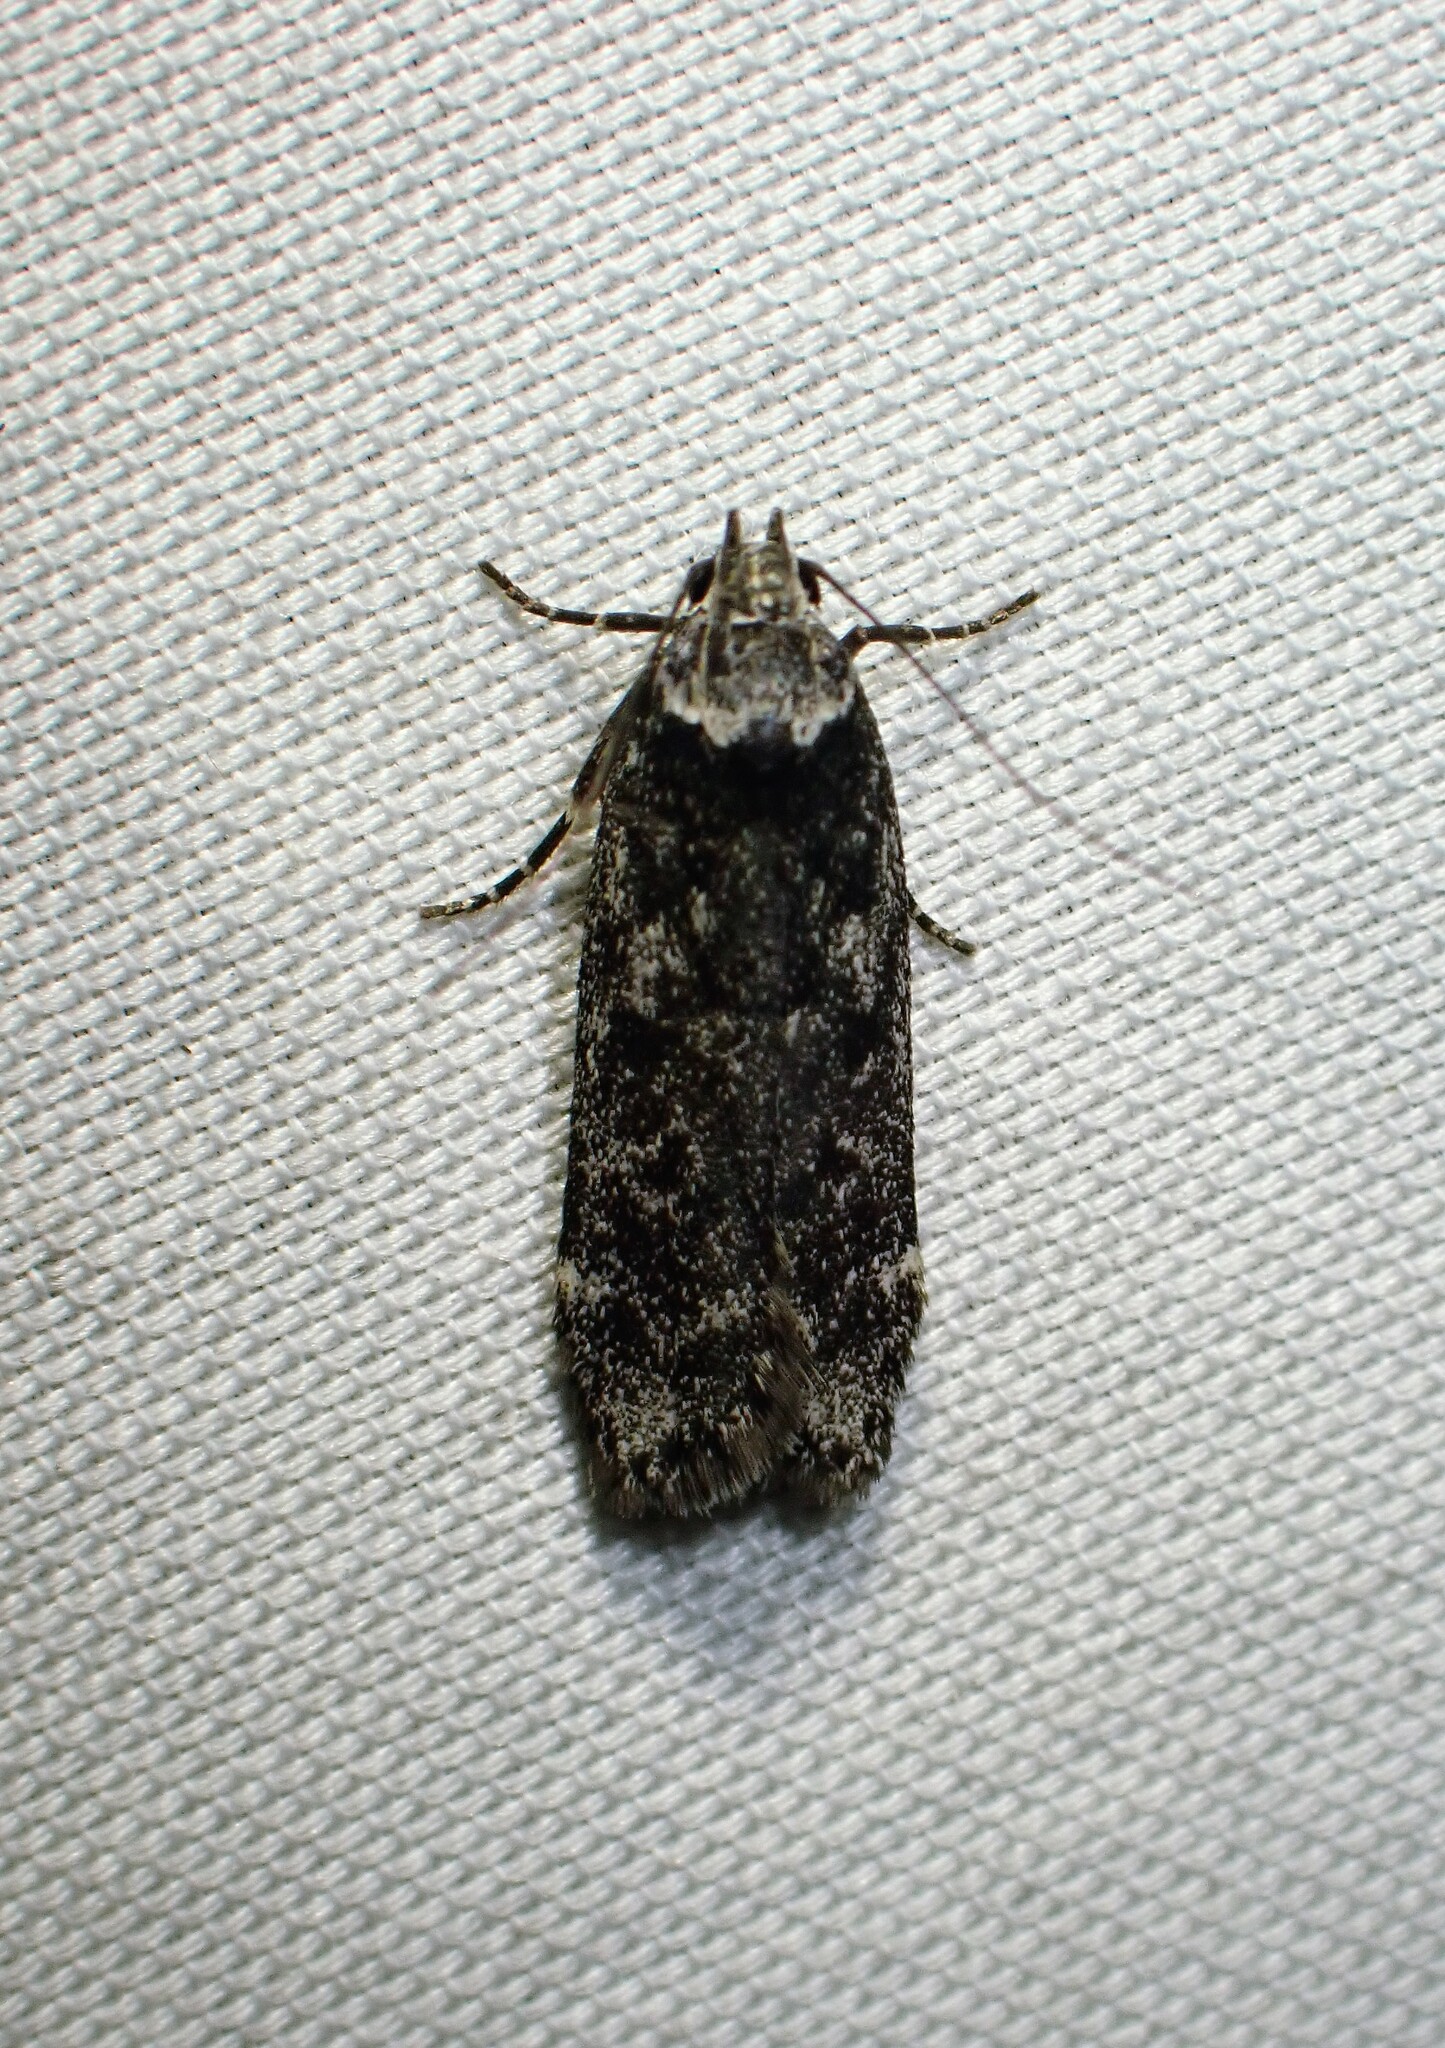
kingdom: Animalia
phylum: Arthropoda
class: Insecta
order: Lepidoptera
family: Gelechiidae
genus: Anacampsis
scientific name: Anacampsis niveopulvella
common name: Pale-headed aspen leafroller moth
